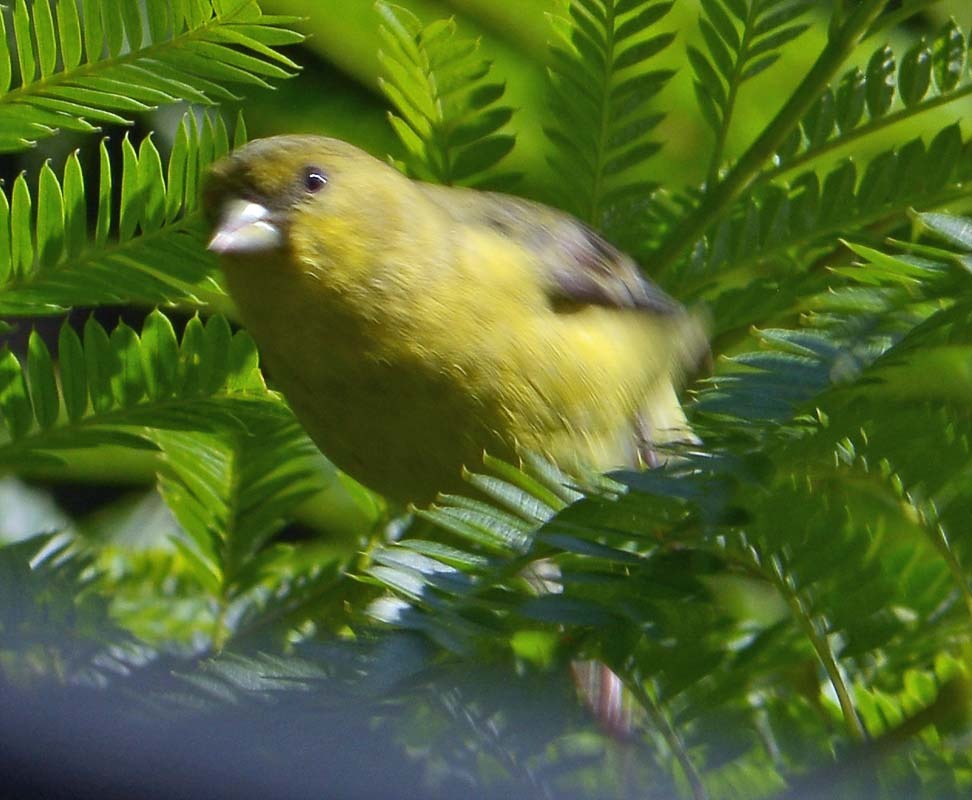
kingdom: Animalia
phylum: Chordata
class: Aves
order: Passeriformes
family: Fringillidae
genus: Spinus
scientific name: Spinus psaltria
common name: Lesser goldfinch
